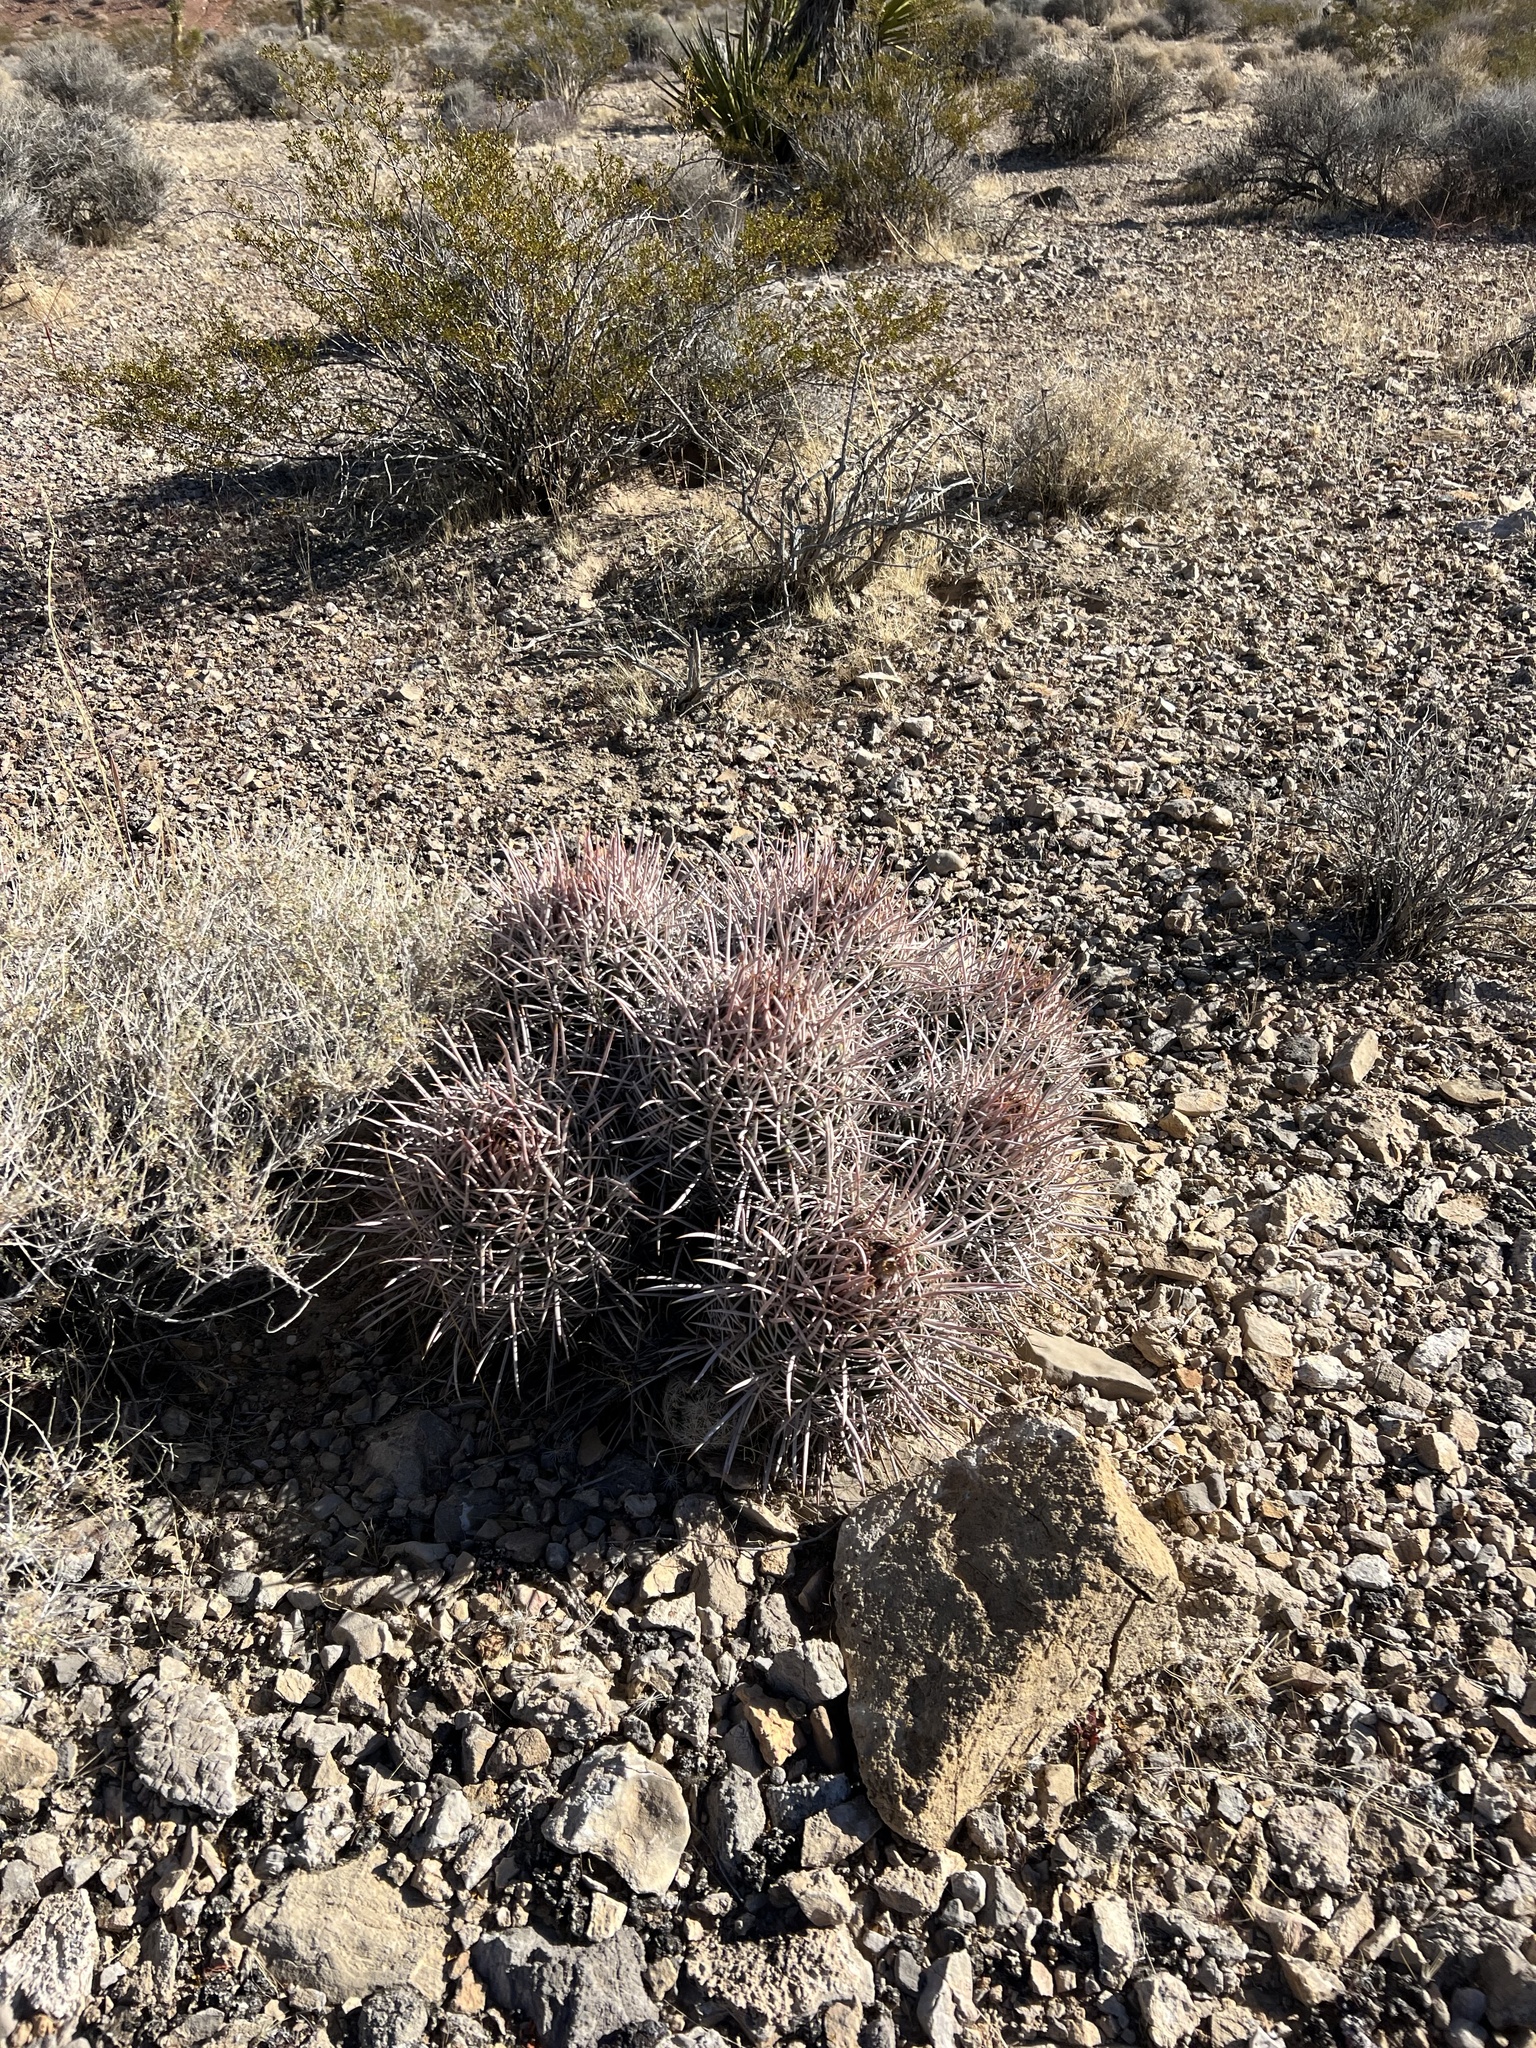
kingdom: Plantae
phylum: Tracheophyta
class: Magnoliopsida
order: Caryophyllales
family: Cactaceae
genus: Echinocactus
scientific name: Echinocactus polycephalus
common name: Cottontop cactus
